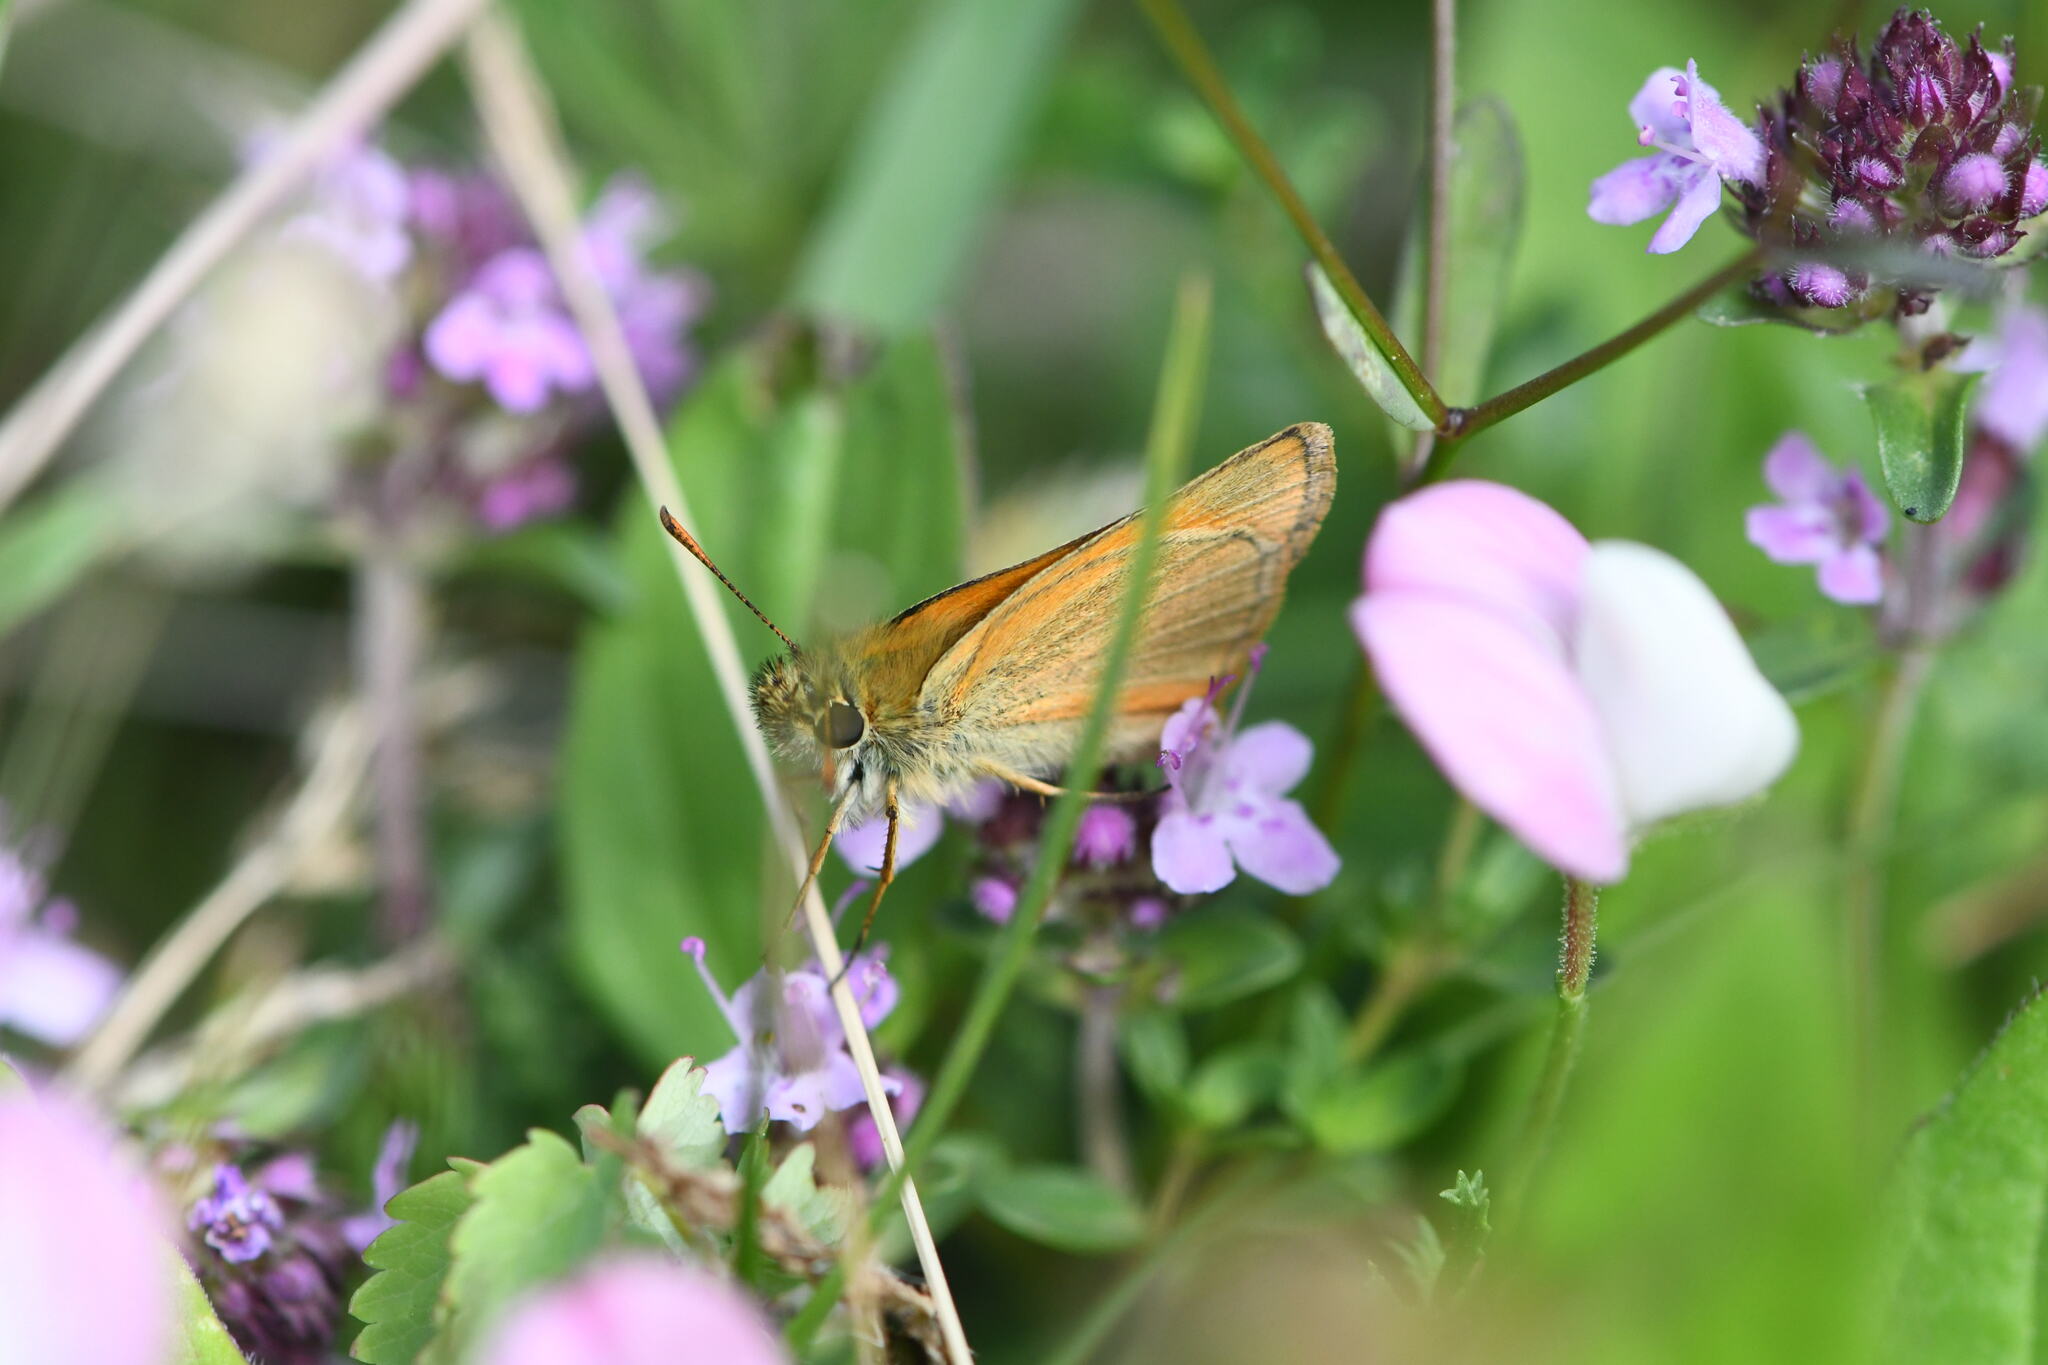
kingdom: Animalia
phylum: Arthropoda
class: Insecta
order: Lepidoptera
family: Hesperiidae
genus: Thymelicus
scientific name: Thymelicus sylvestris
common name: Small skipper
